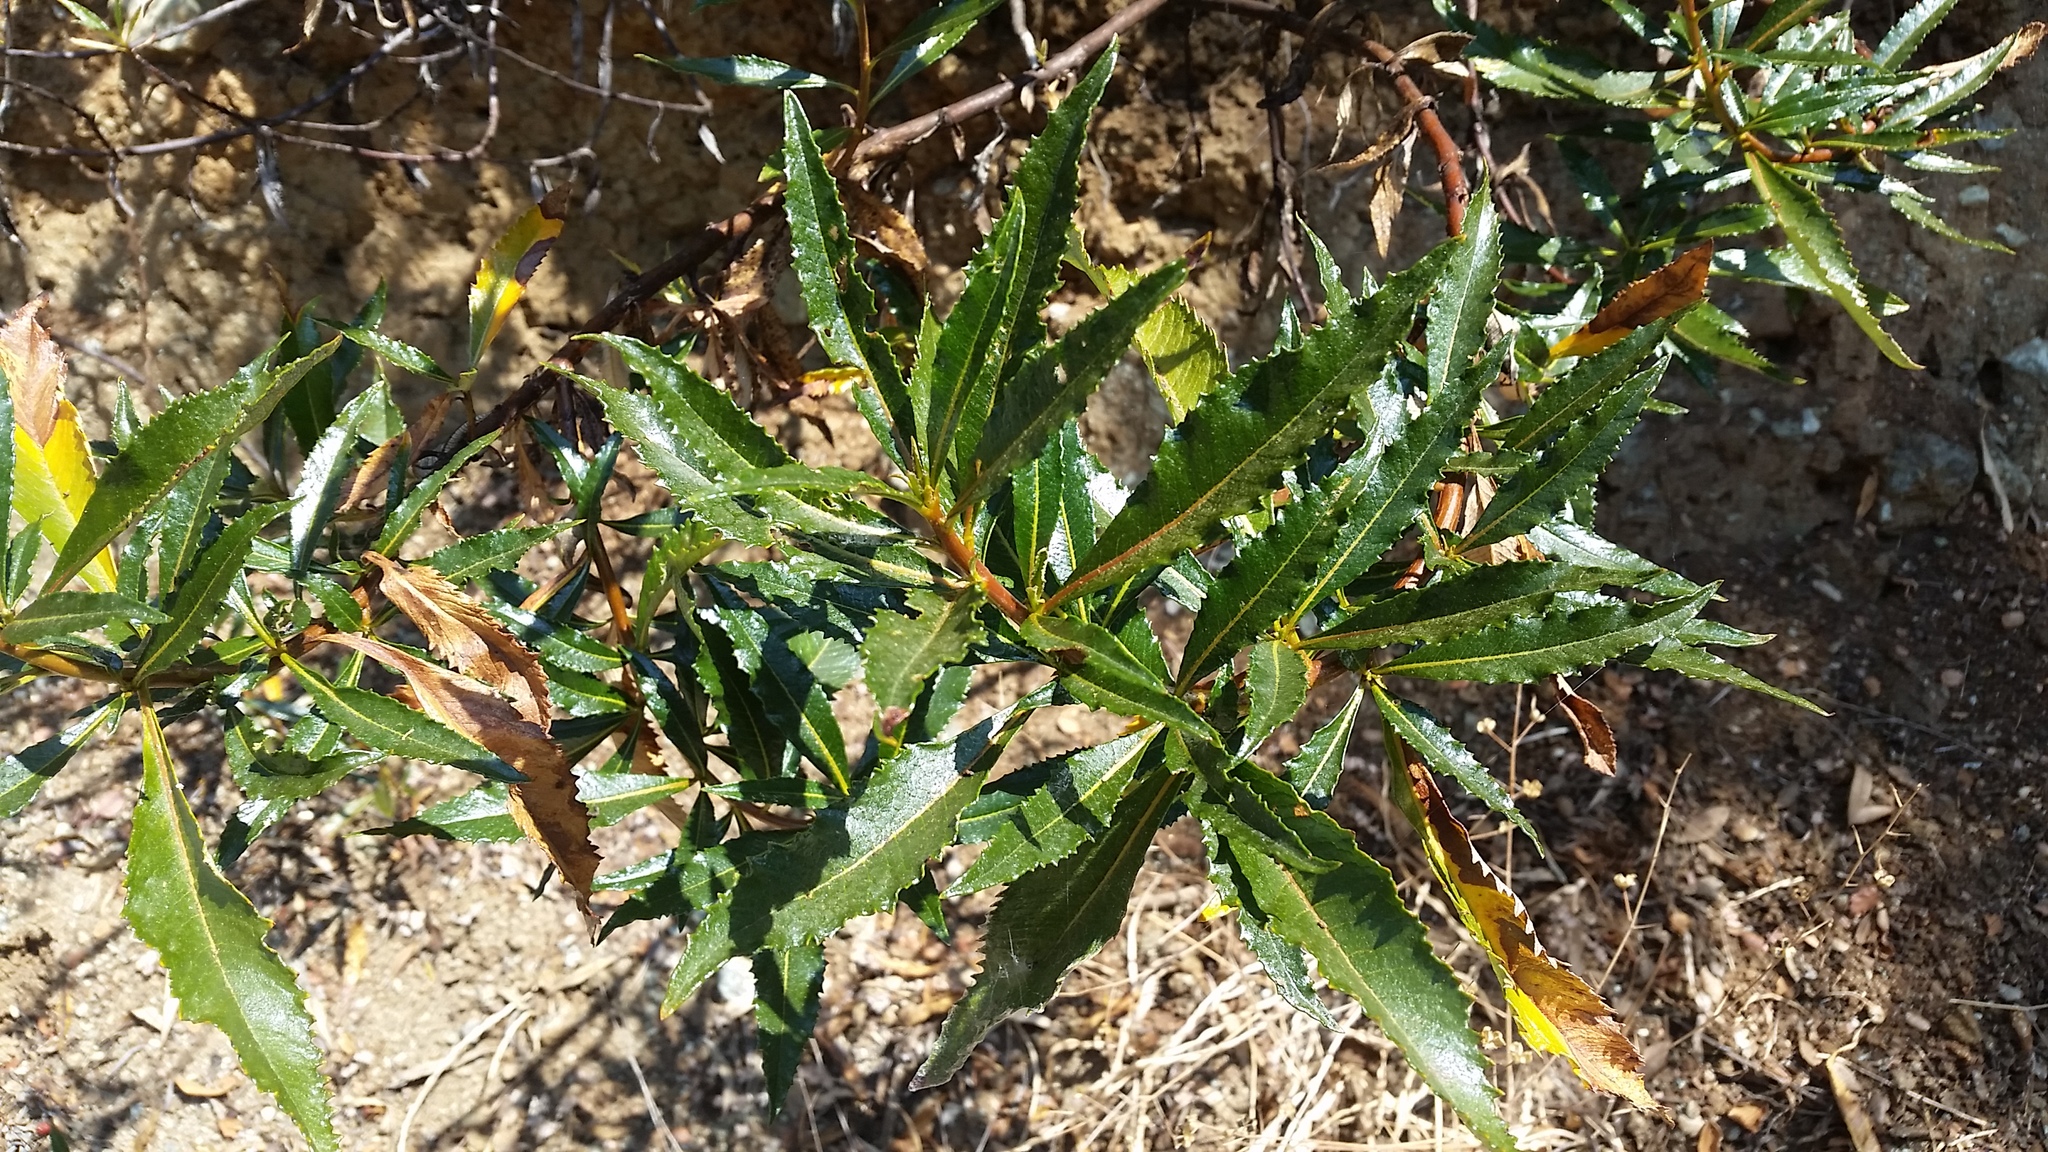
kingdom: Plantae
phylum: Tracheophyta
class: Magnoliopsida
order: Boraginales
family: Namaceae
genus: Eriodictyon
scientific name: Eriodictyon californicum
